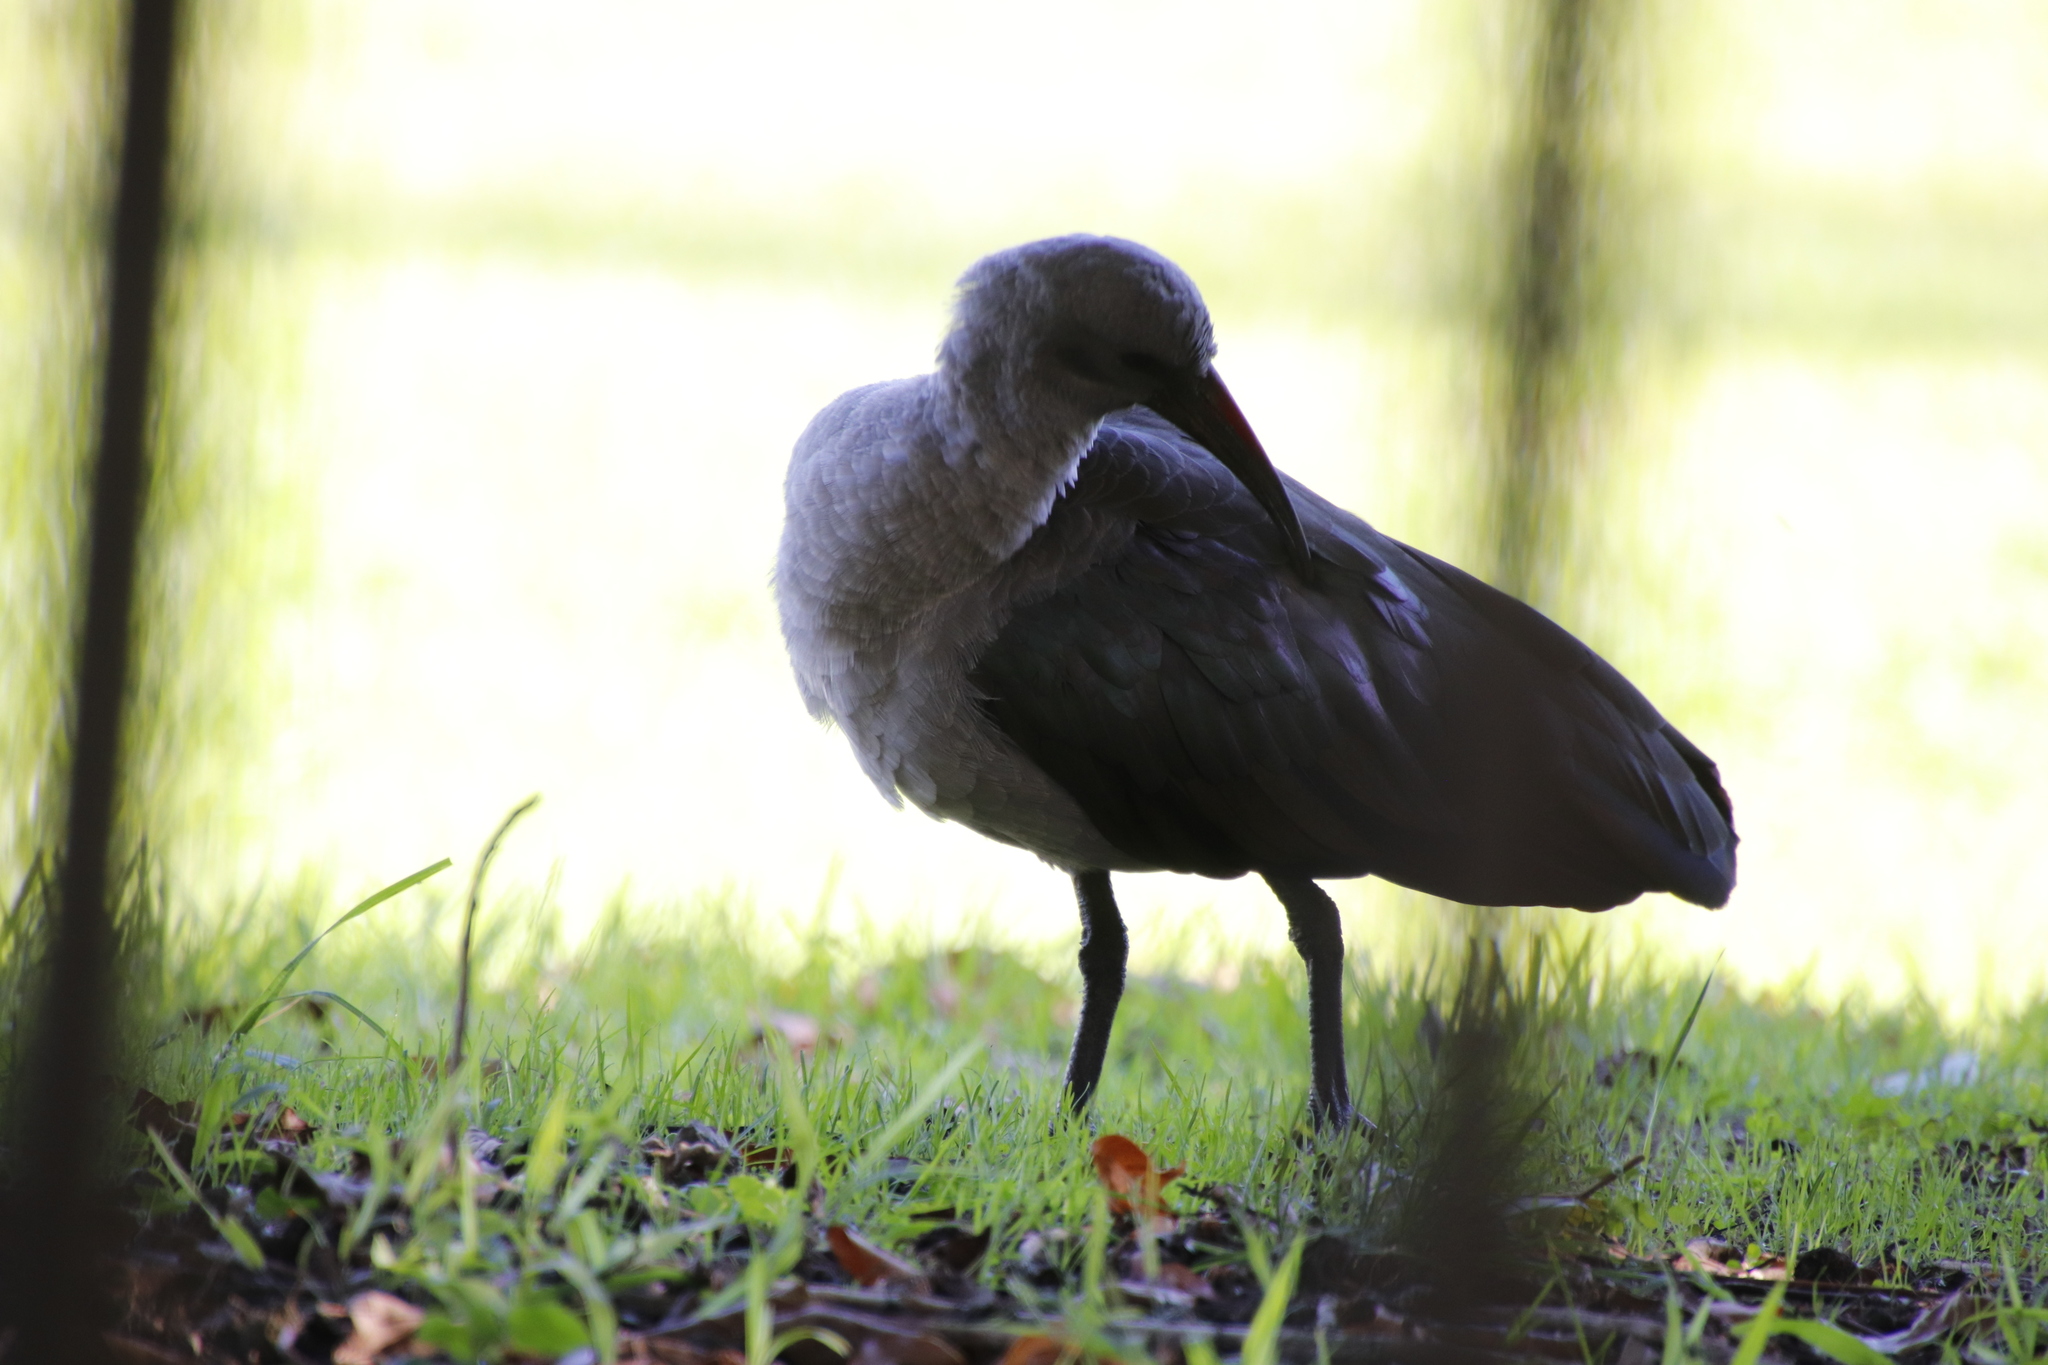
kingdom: Animalia
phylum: Chordata
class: Aves
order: Pelecaniformes
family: Threskiornithidae
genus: Bostrychia
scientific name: Bostrychia hagedash
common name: Hadada ibis
